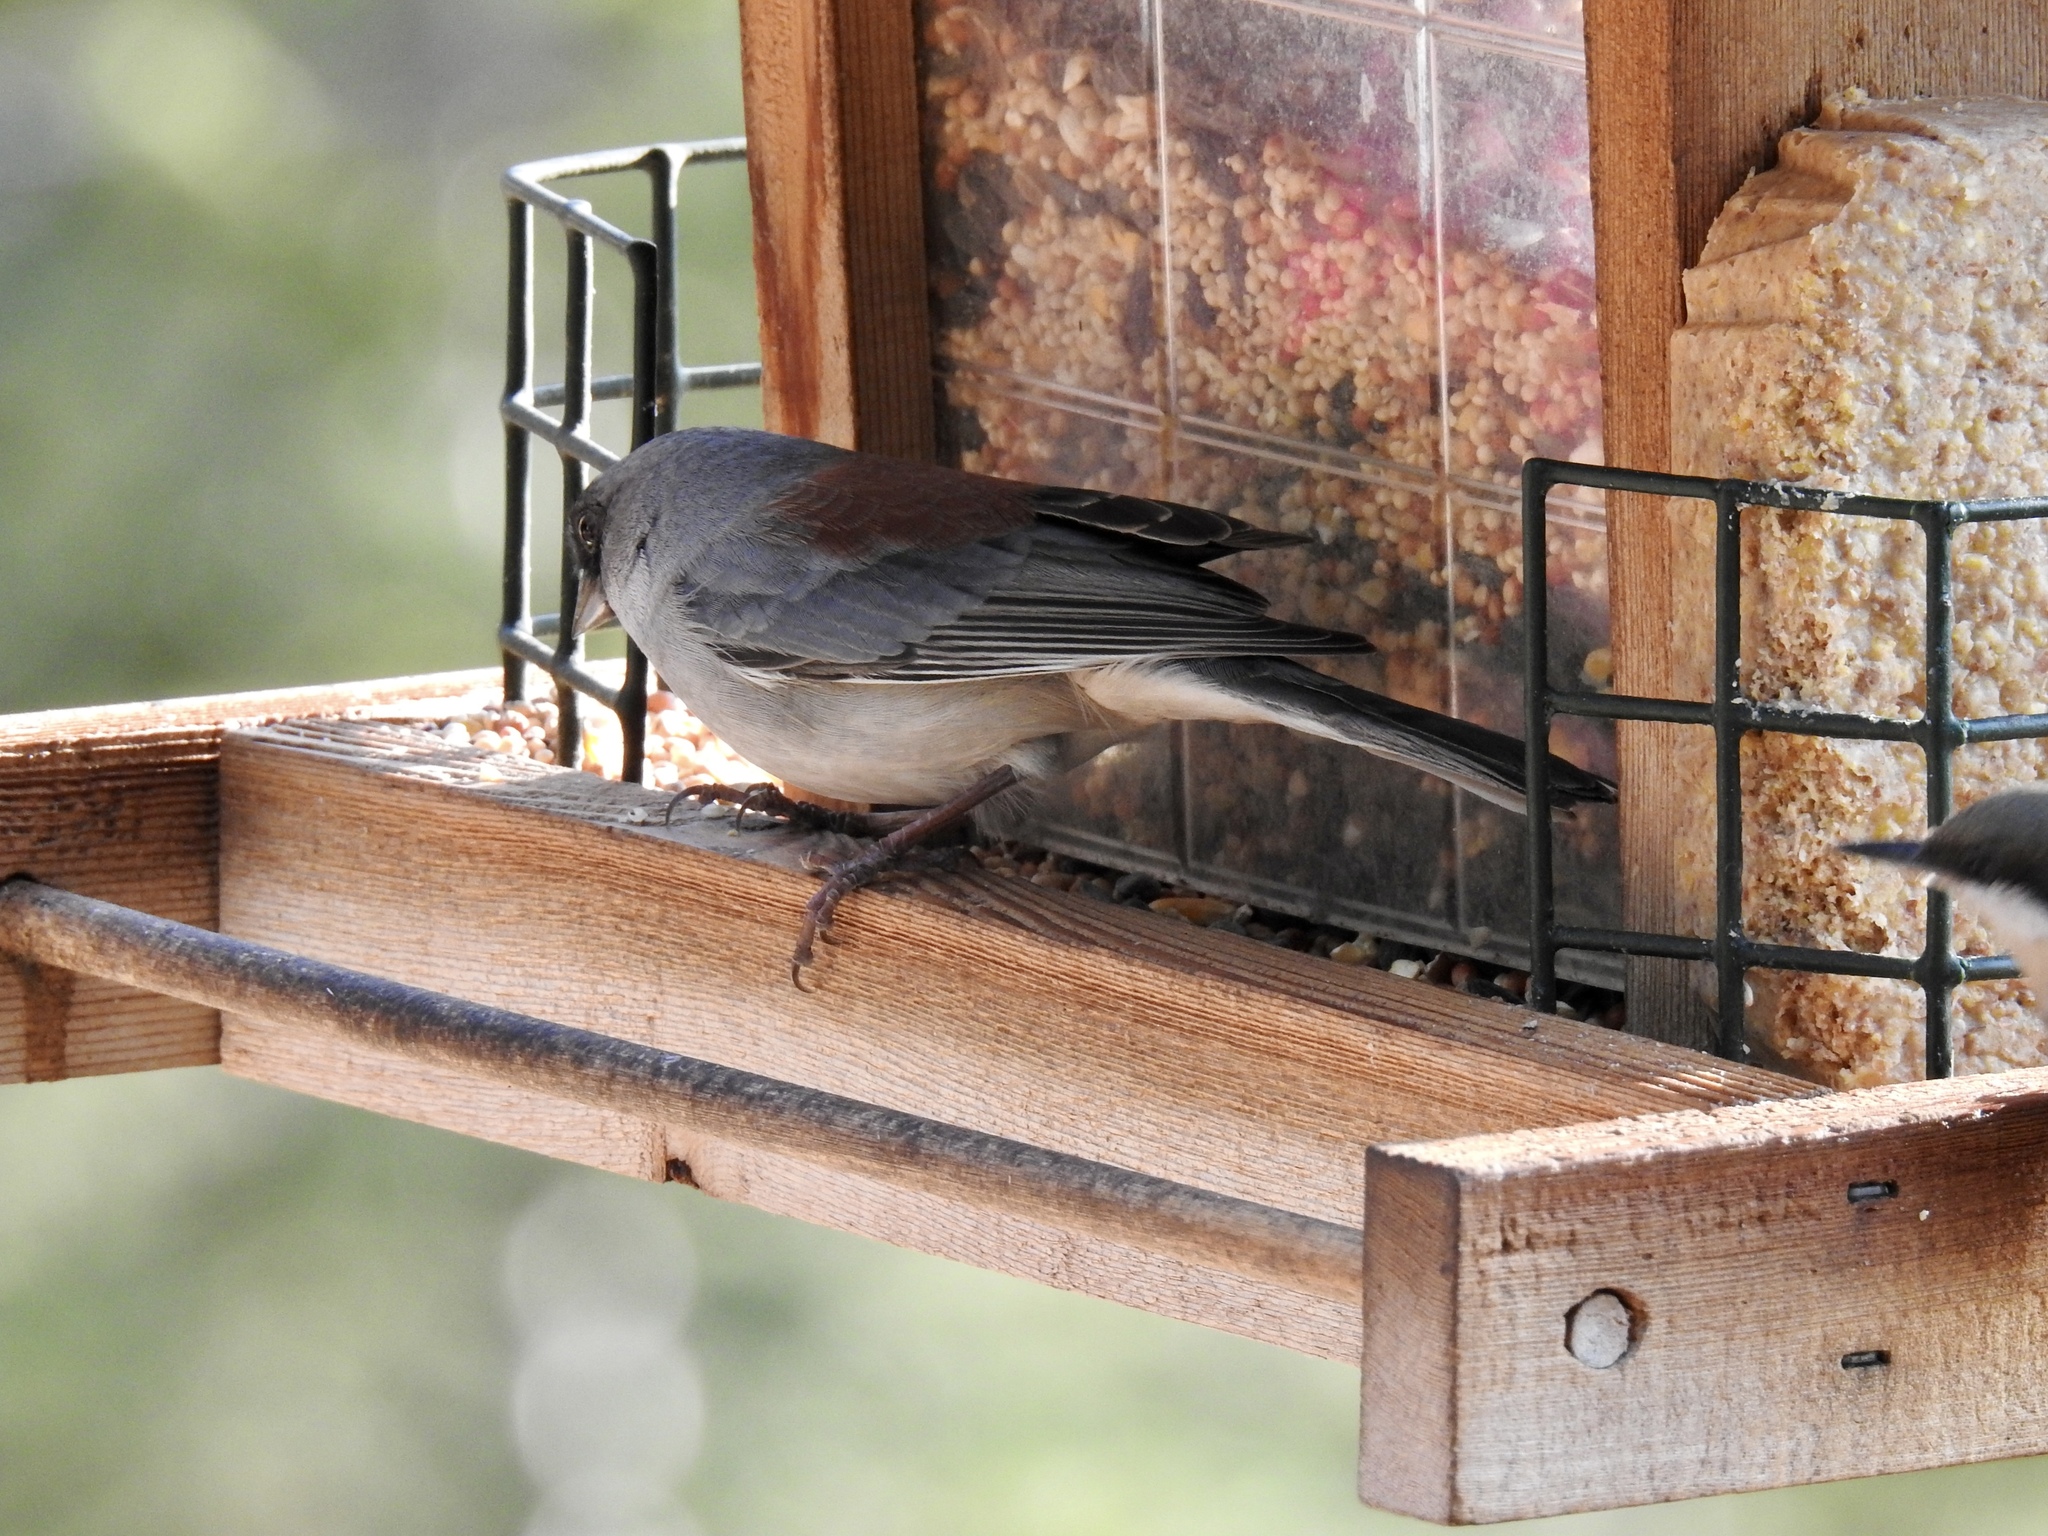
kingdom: Animalia
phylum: Chordata
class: Aves
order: Passeriformes
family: Passerellidae
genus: Junco
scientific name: Junco hyemalis
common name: Dark-eyed junco
